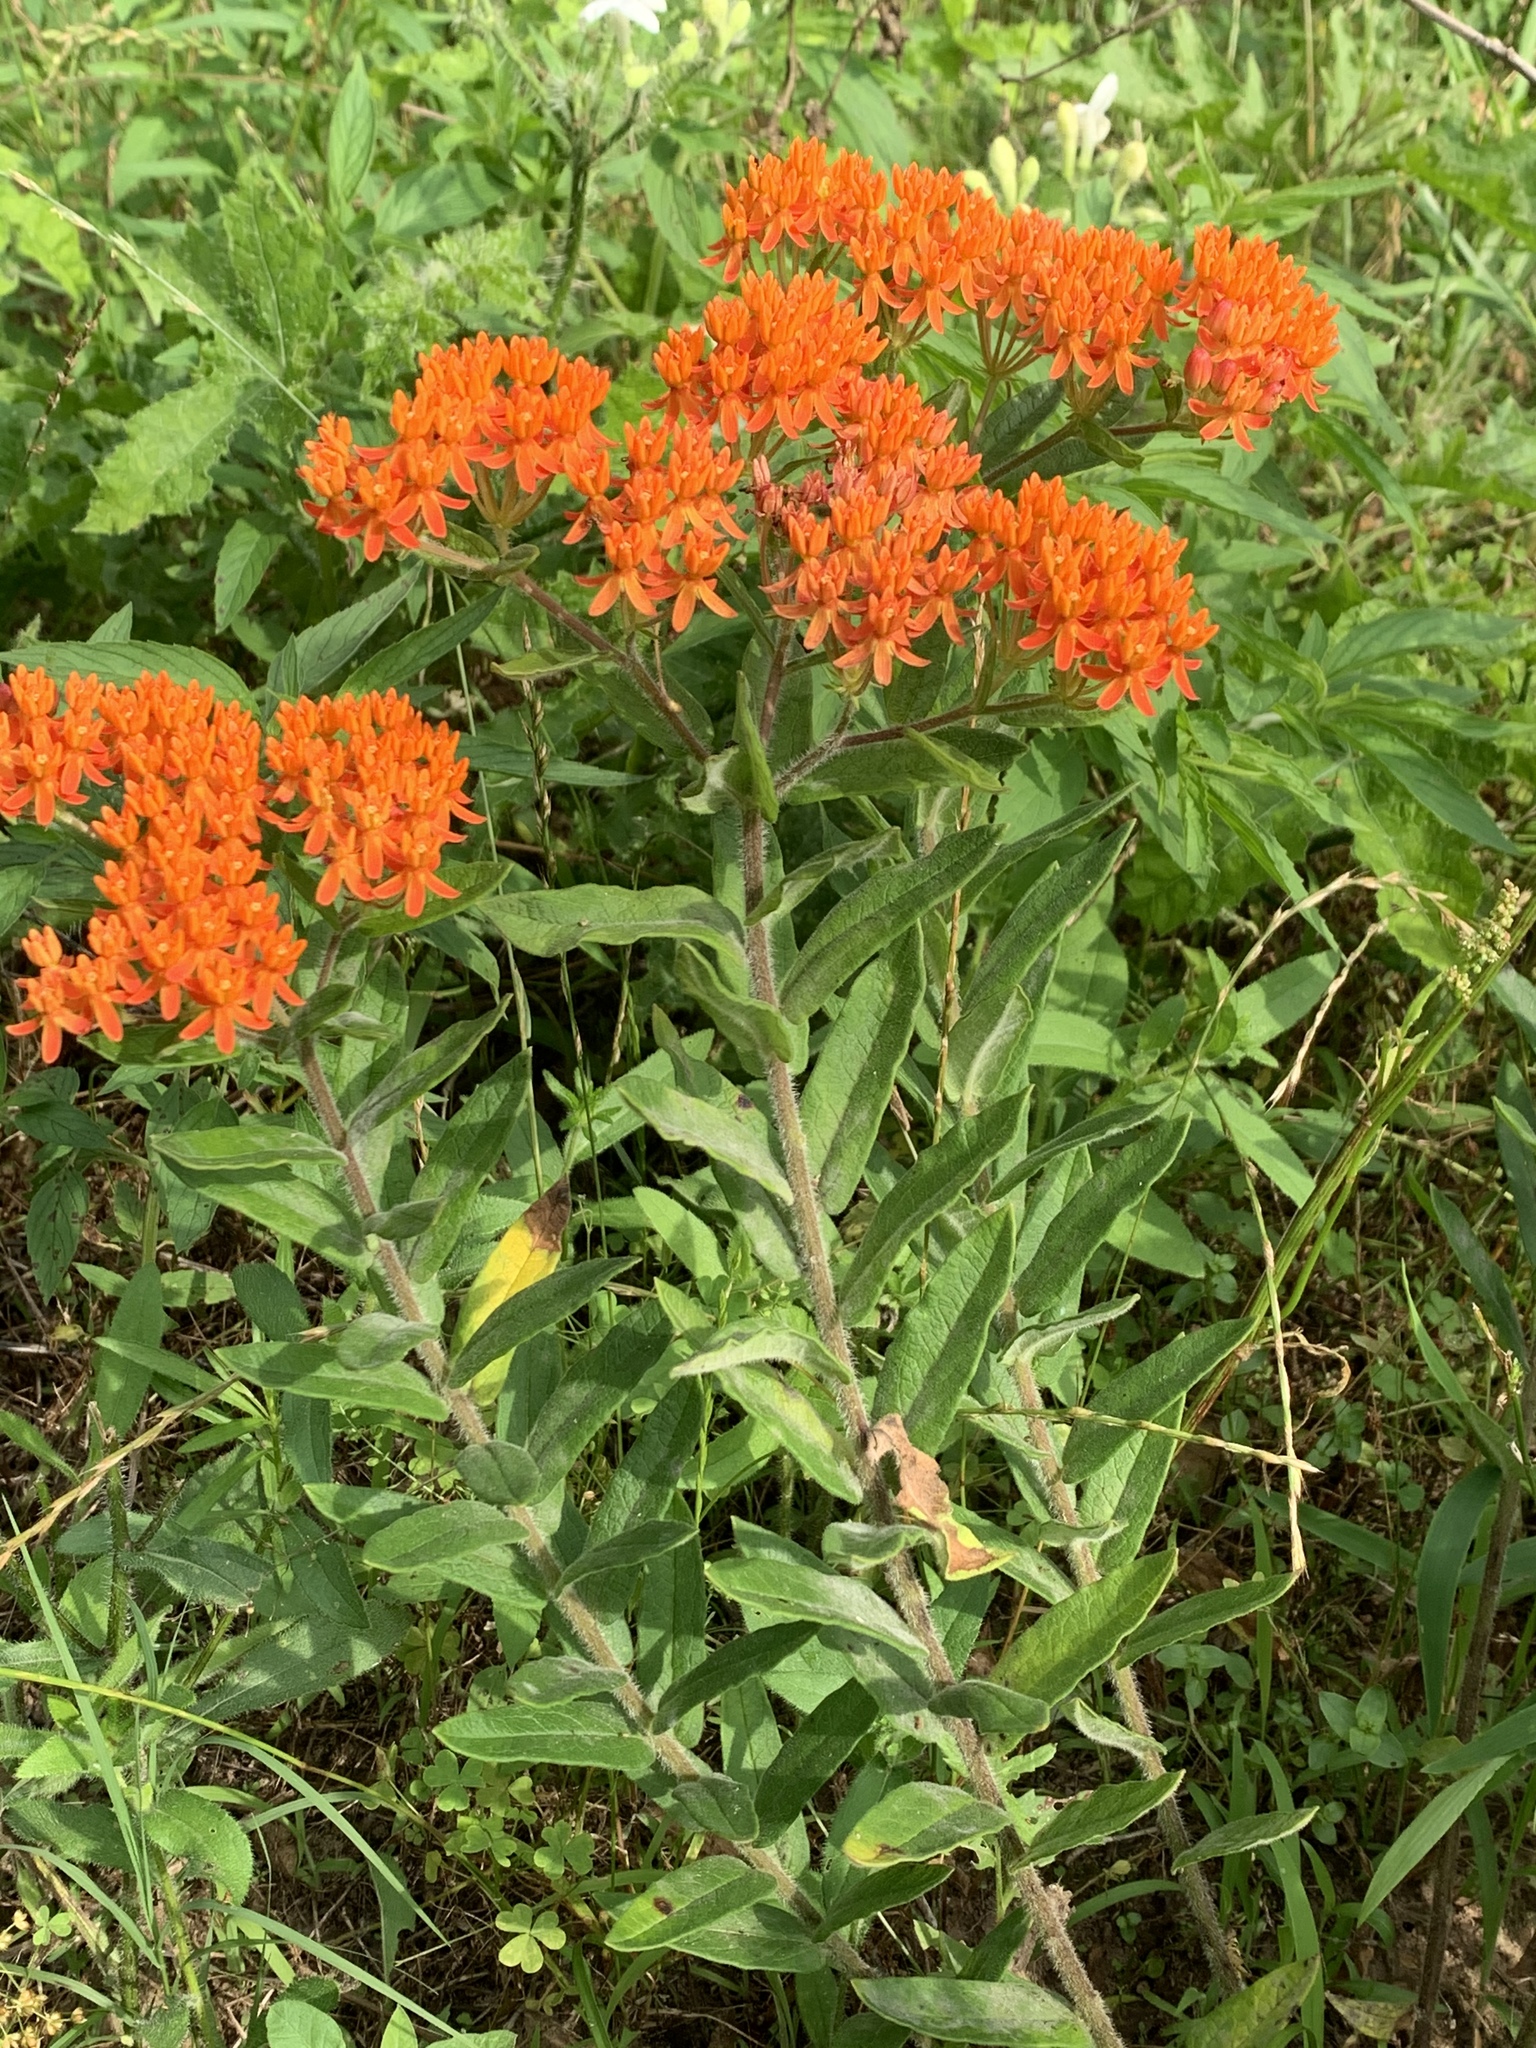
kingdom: Plantae
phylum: Tracheophyta
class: Magnoliopsida
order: Gentianales
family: Apocynaceae
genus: Asclepias
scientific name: Asclepias tuberosa
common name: Butterfly milkweed
